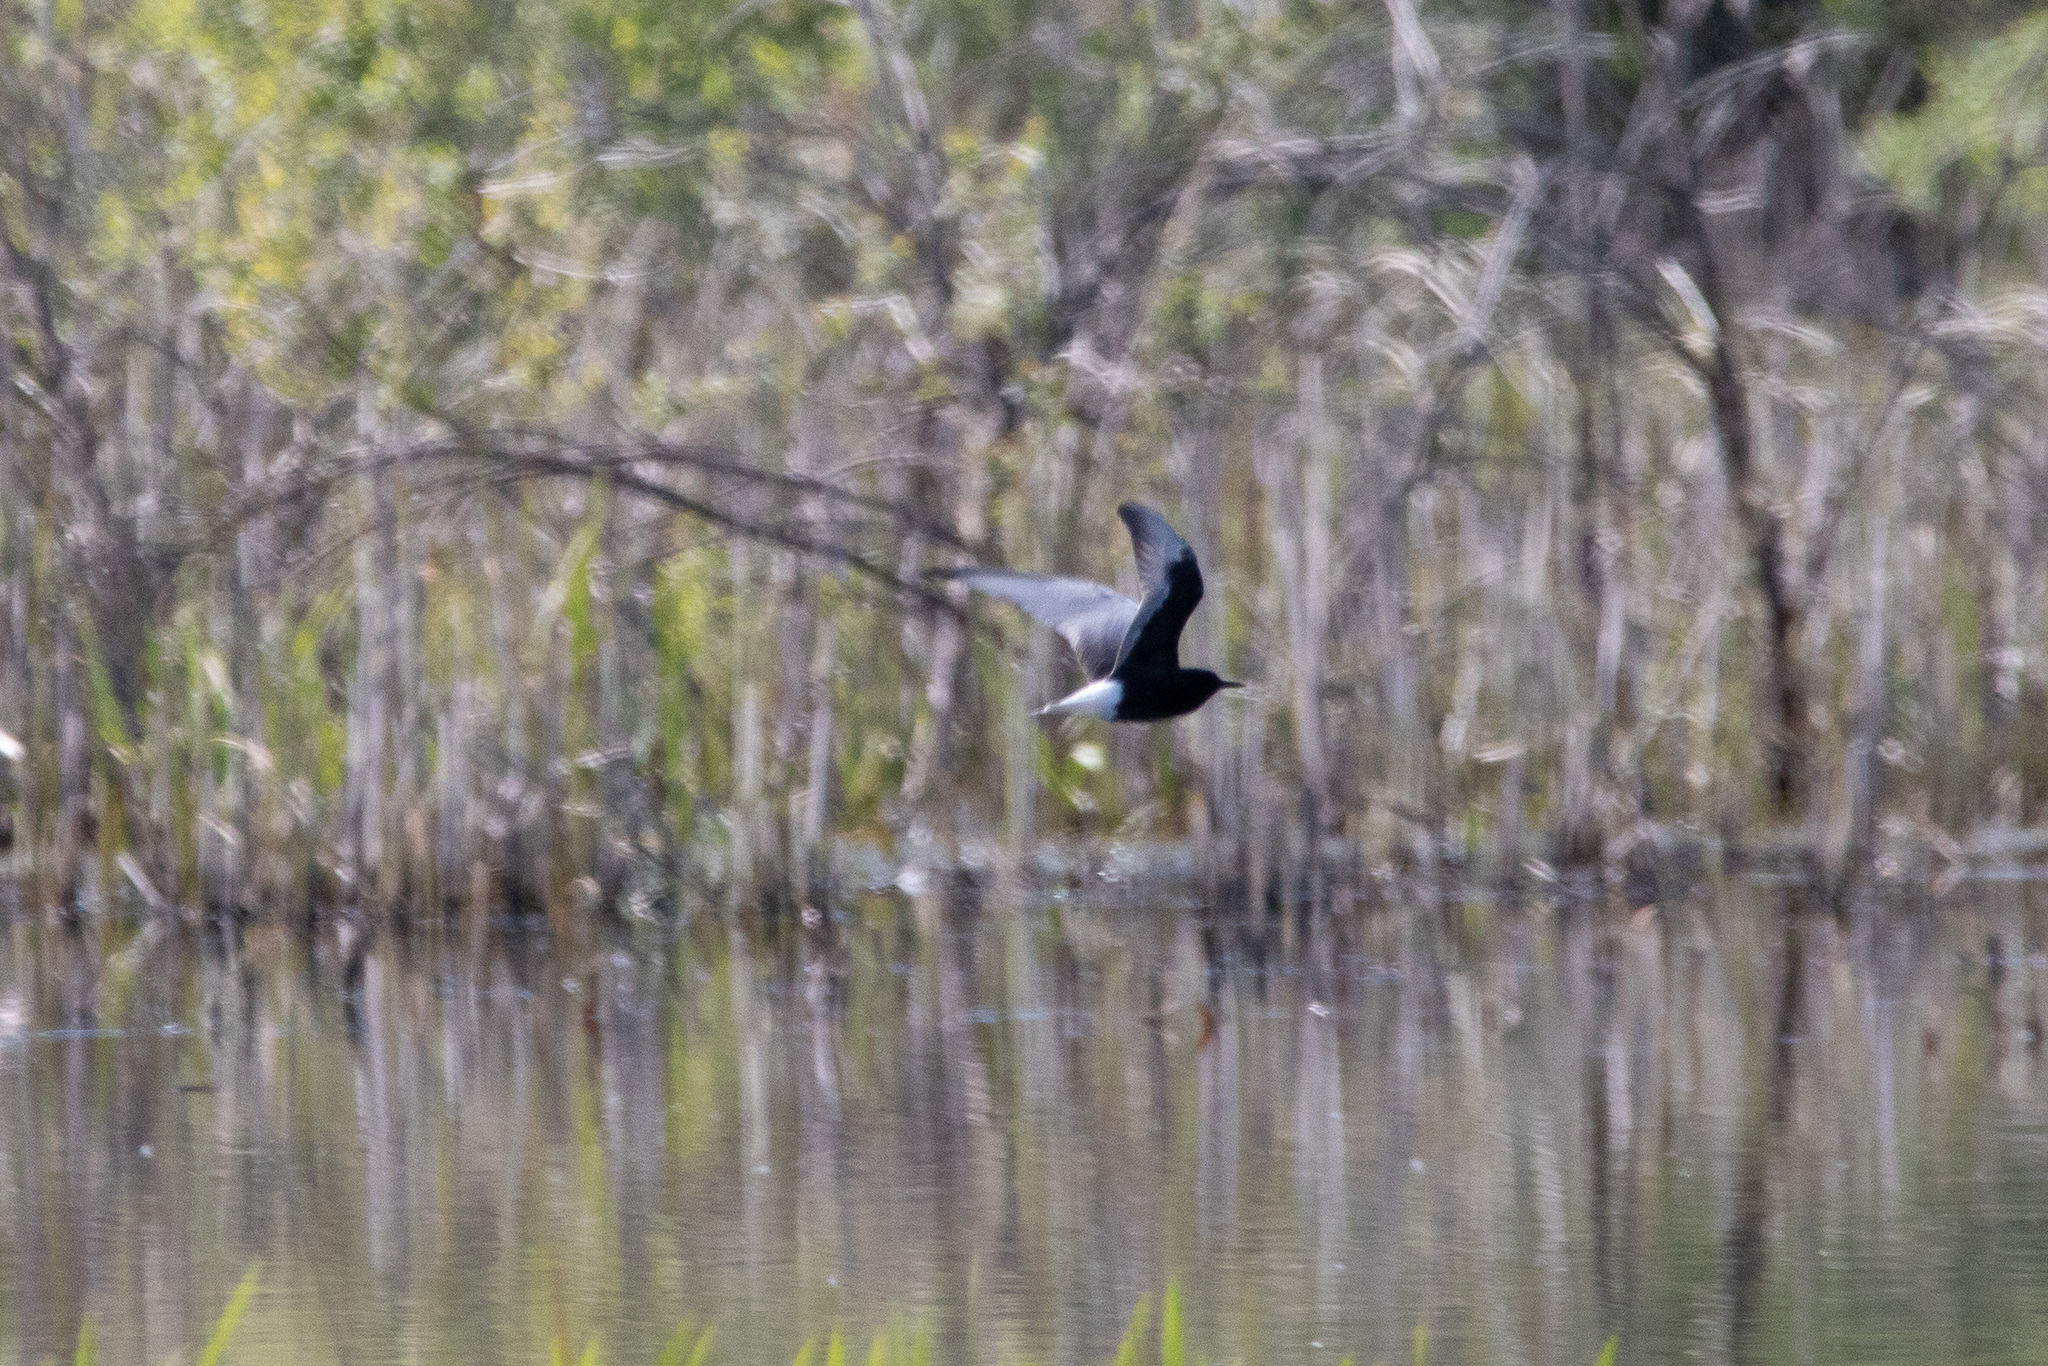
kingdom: Animalia
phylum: Chordata
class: Aves
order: Charadriiformes
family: Laridae
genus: Chlidonias
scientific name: Chlidonias leucopterus
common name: White-winged tern
